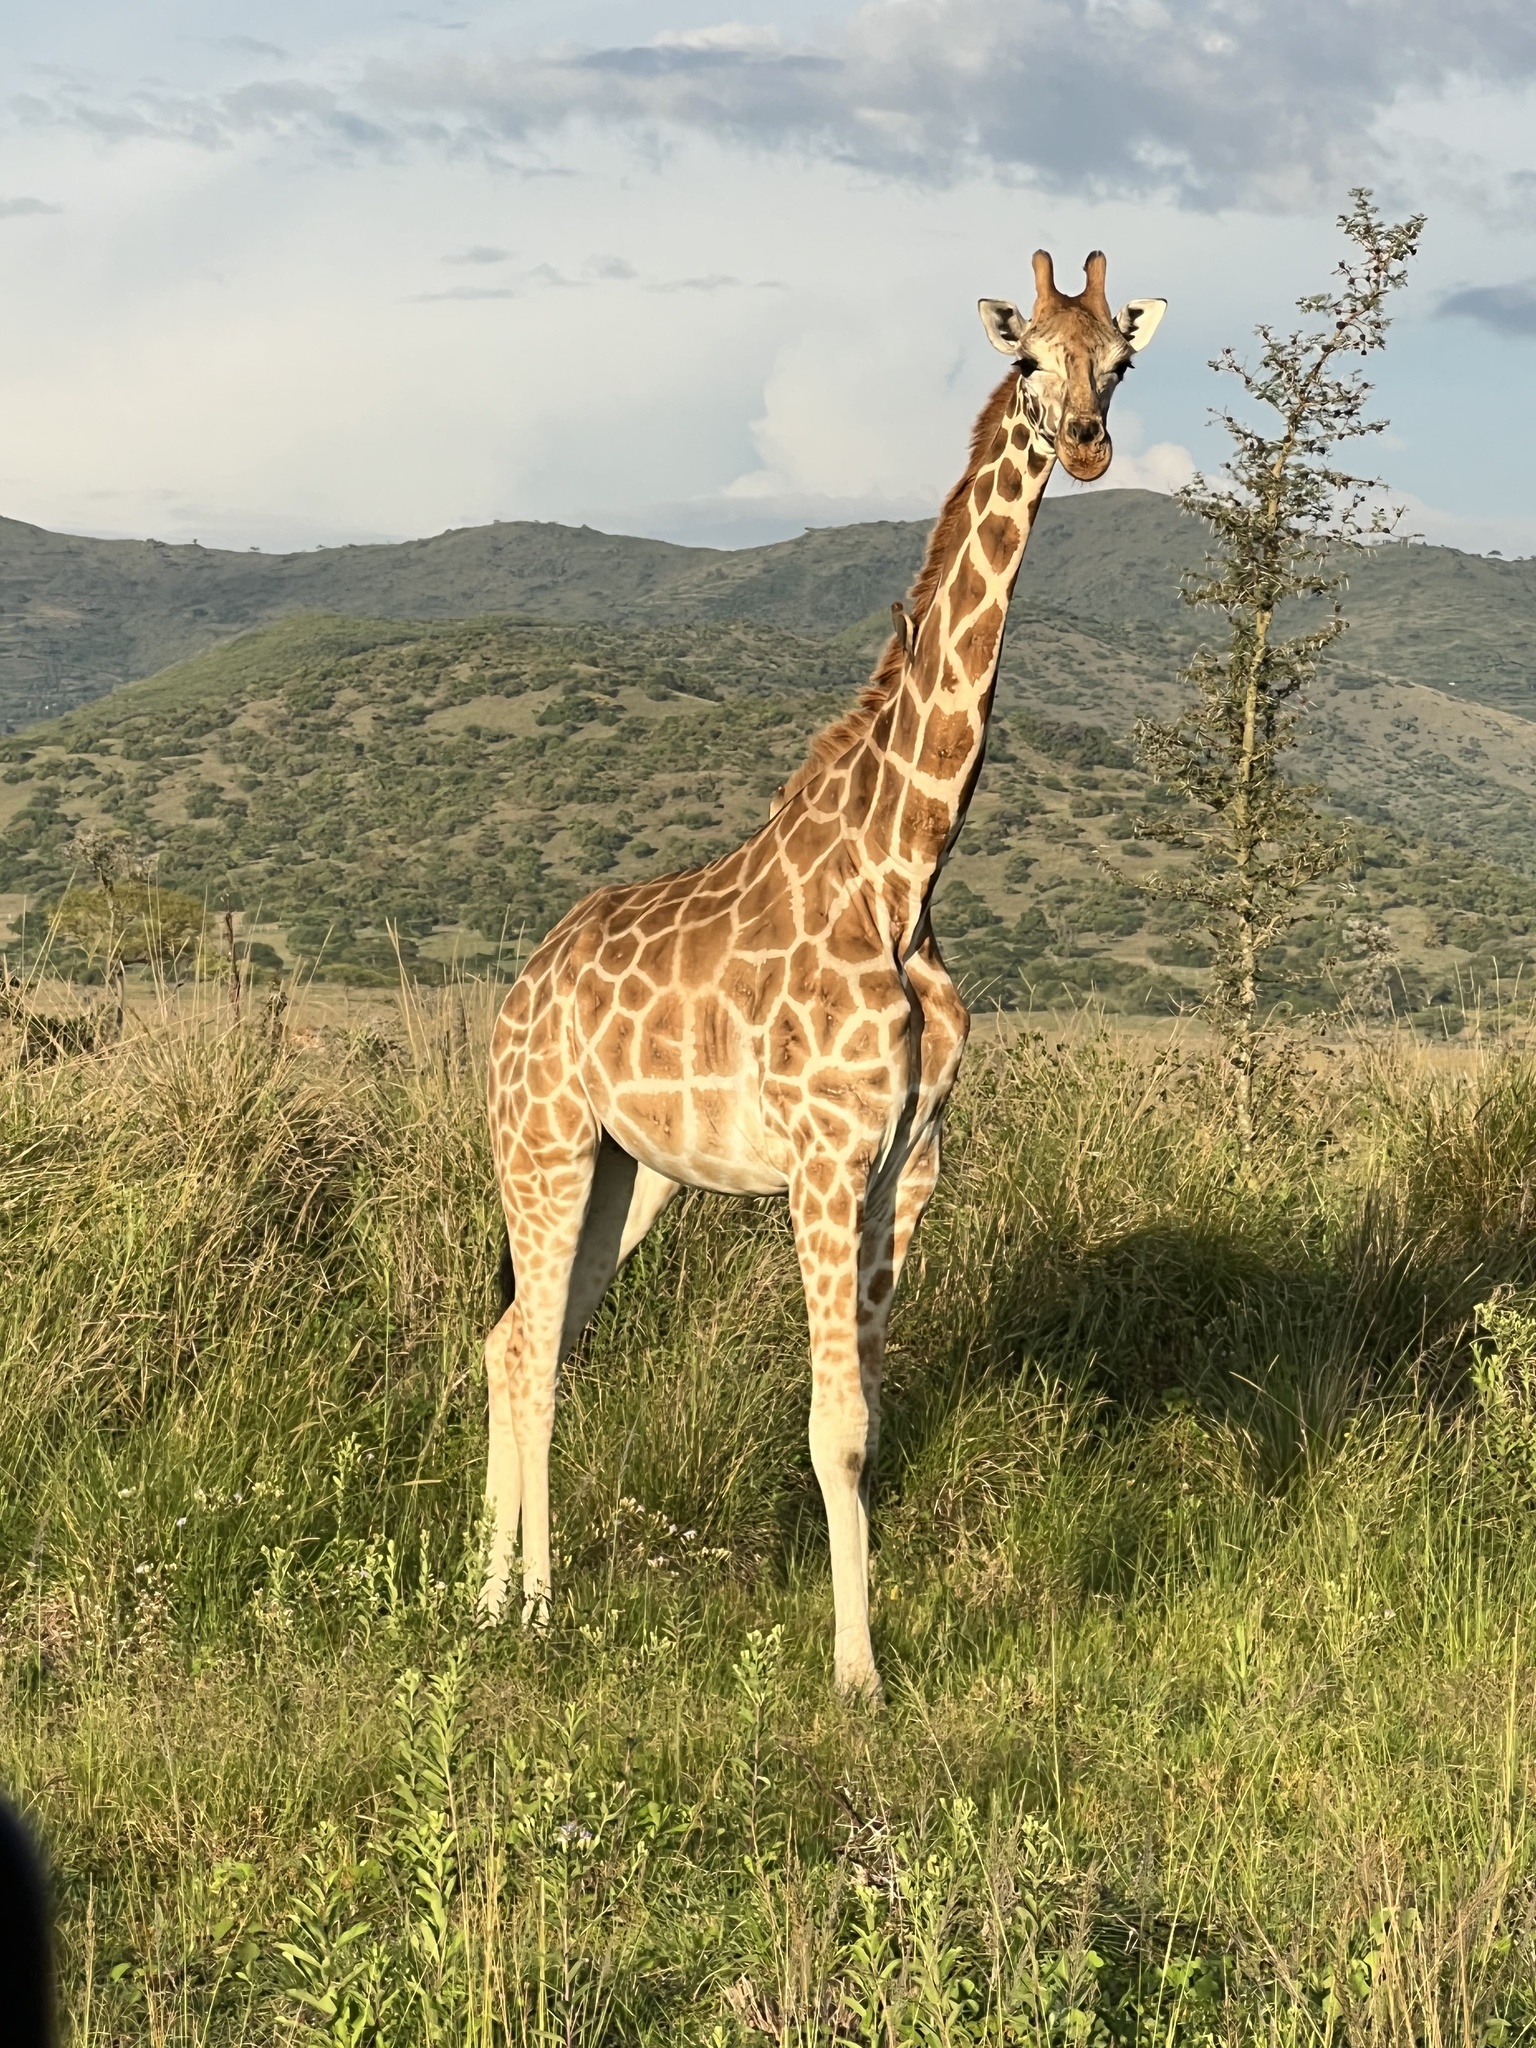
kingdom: Animalia
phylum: Chordata
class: Mammalia
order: Artiodactyla
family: Giraffidae
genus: Giraffa
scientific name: Giraffa camelopardalis
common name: Giraffe
